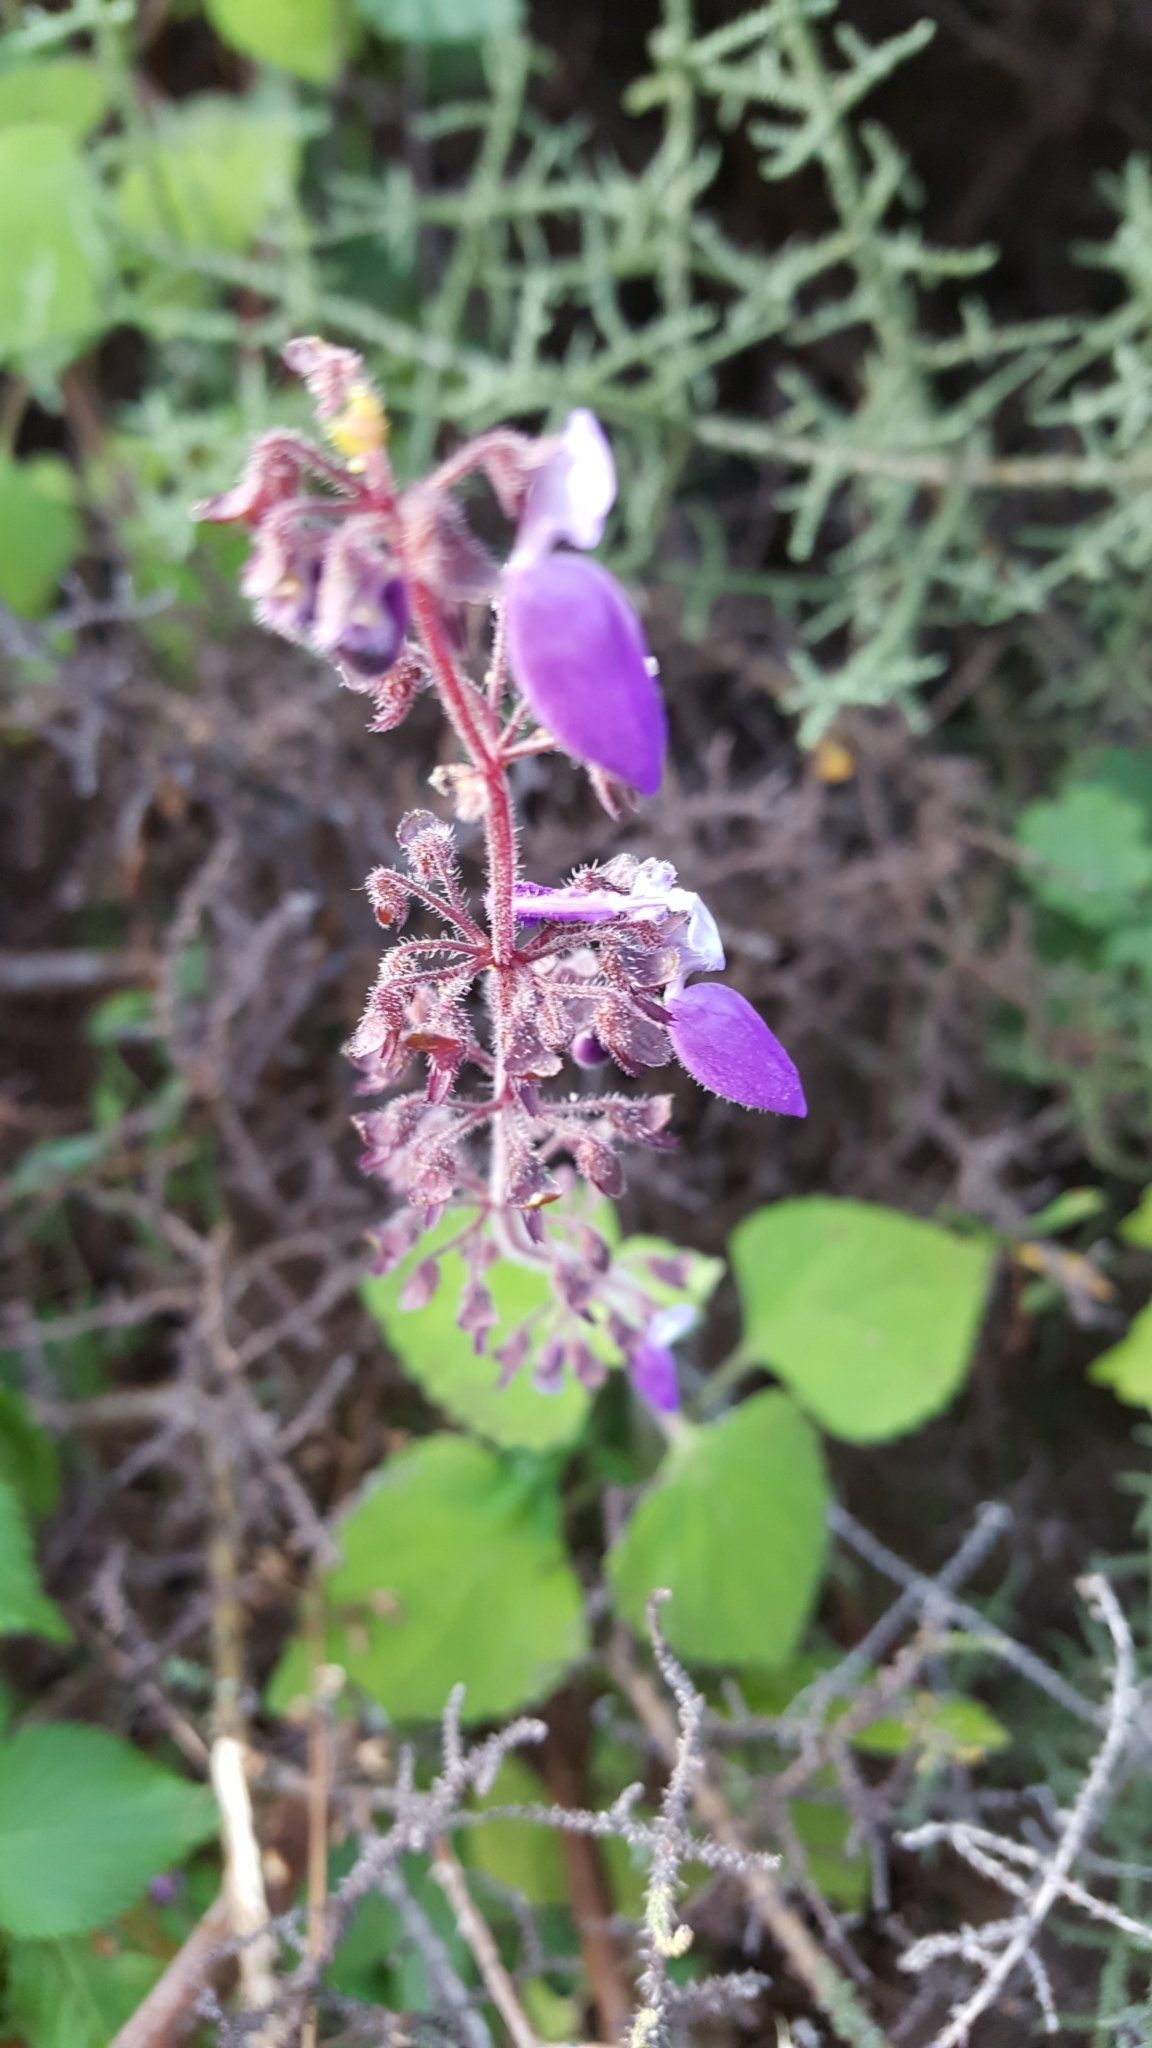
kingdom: Plantae
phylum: Tracheophyta
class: Magnoliopsida
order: Lamiales
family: Lamiaceae
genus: Coleus
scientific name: Coleus bojeri
